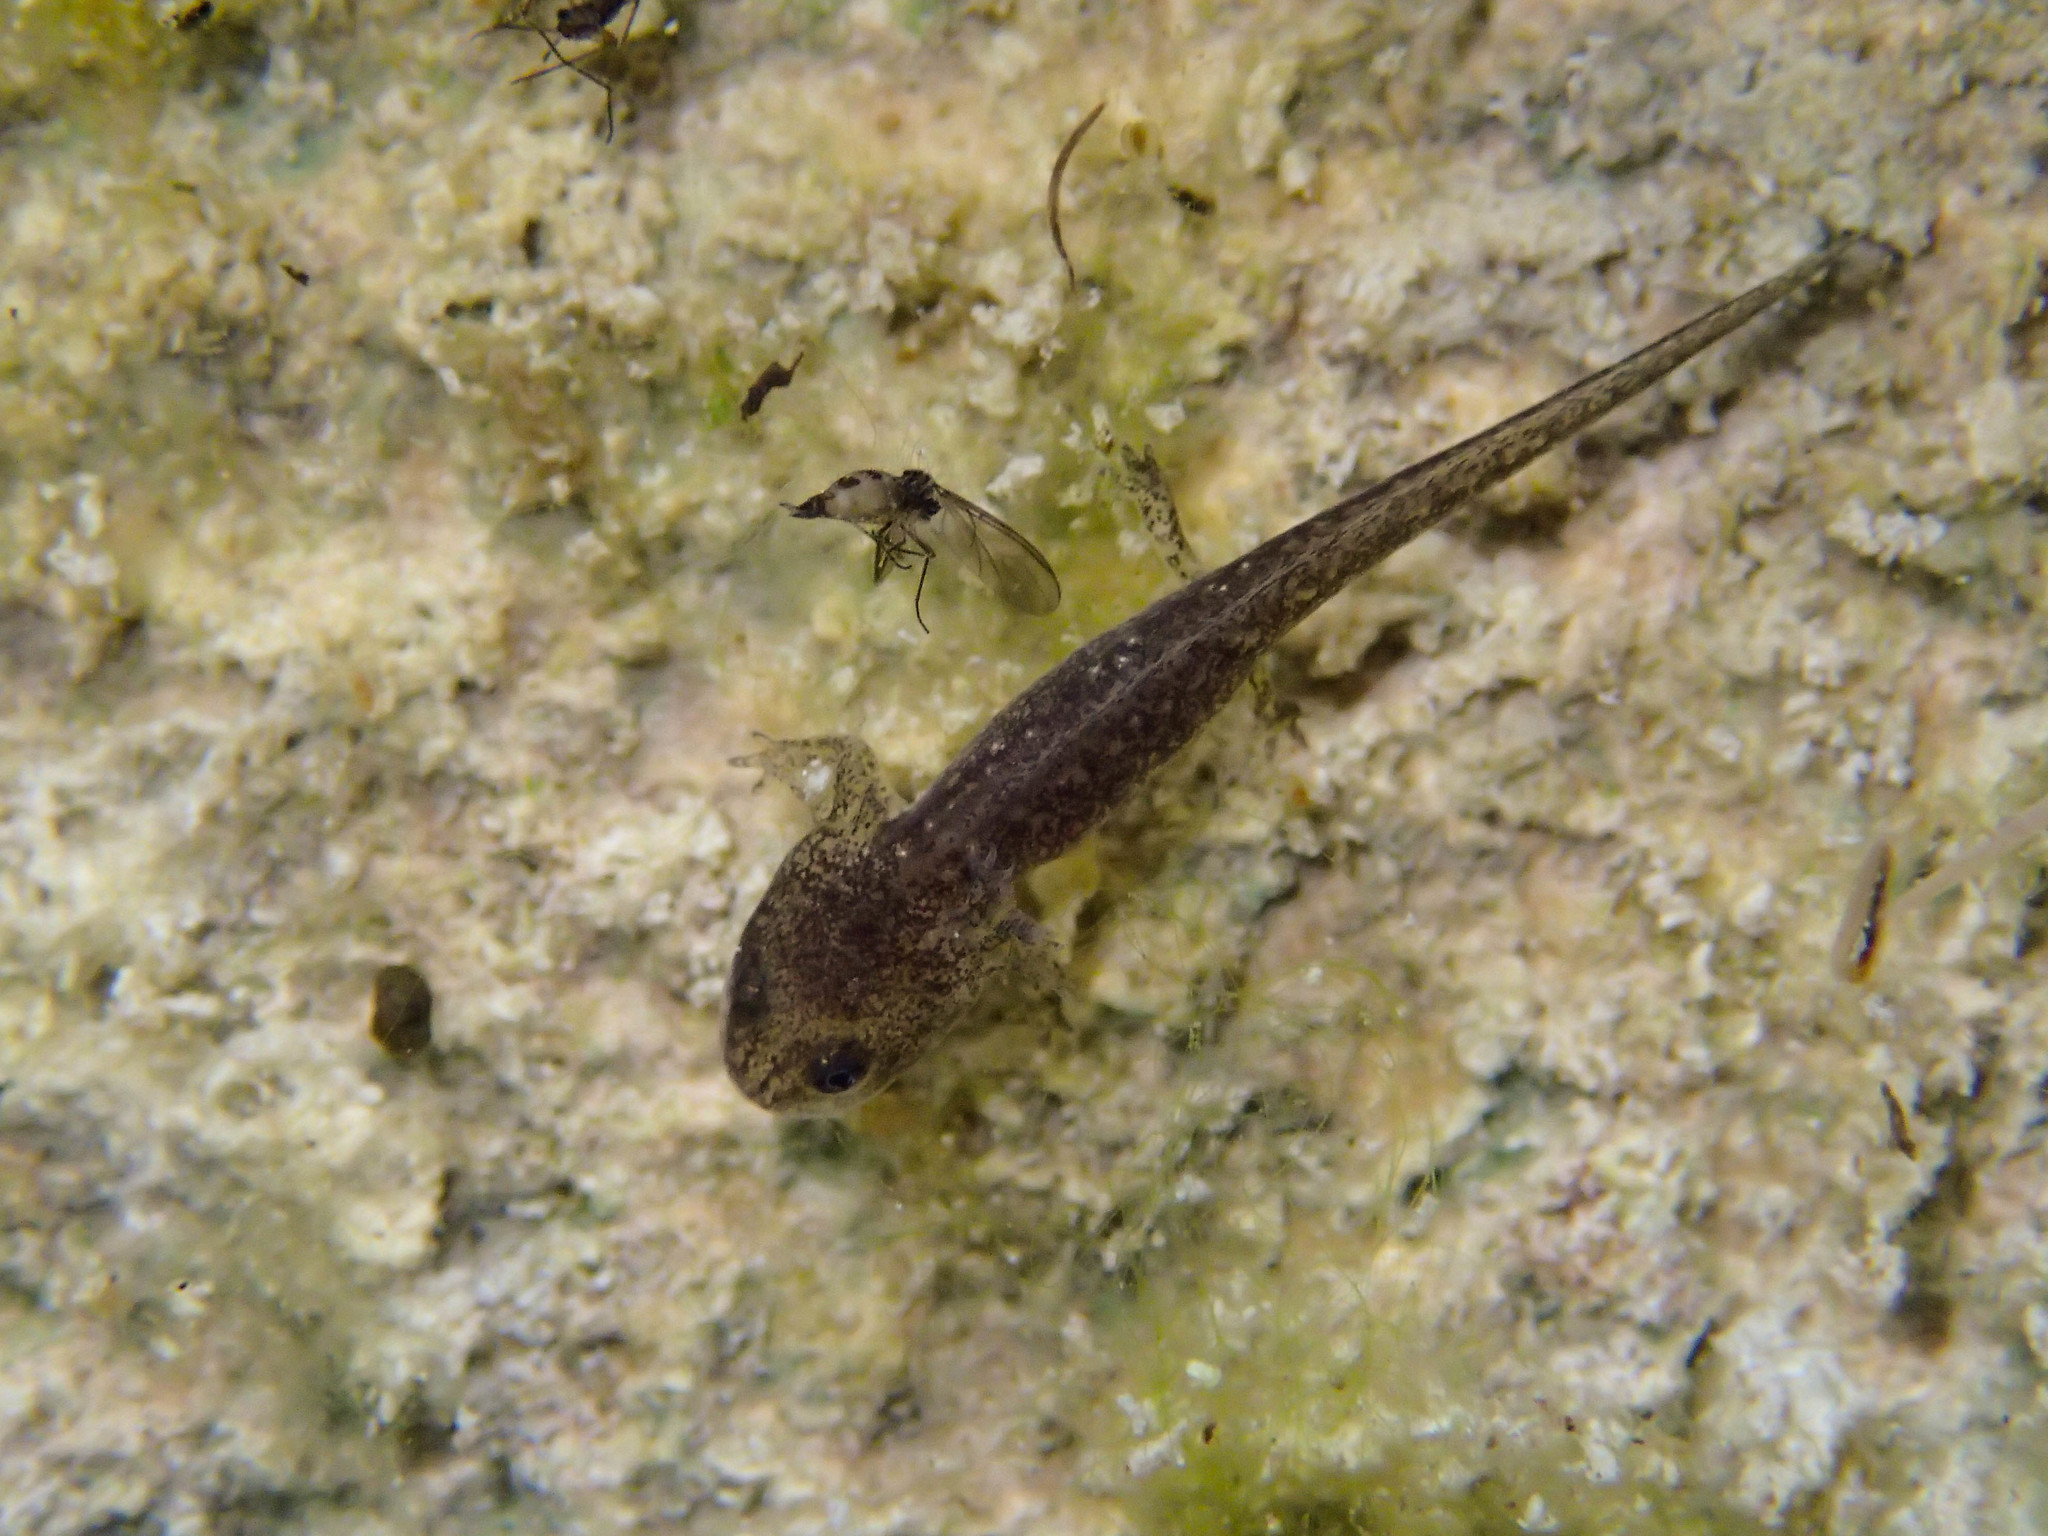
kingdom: Animalia
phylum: Chordata
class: Amphibia
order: Caudata
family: Salamandridae
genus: Salamandrina
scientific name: Salamandrina perspicillata
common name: Northern spectacled salamander
